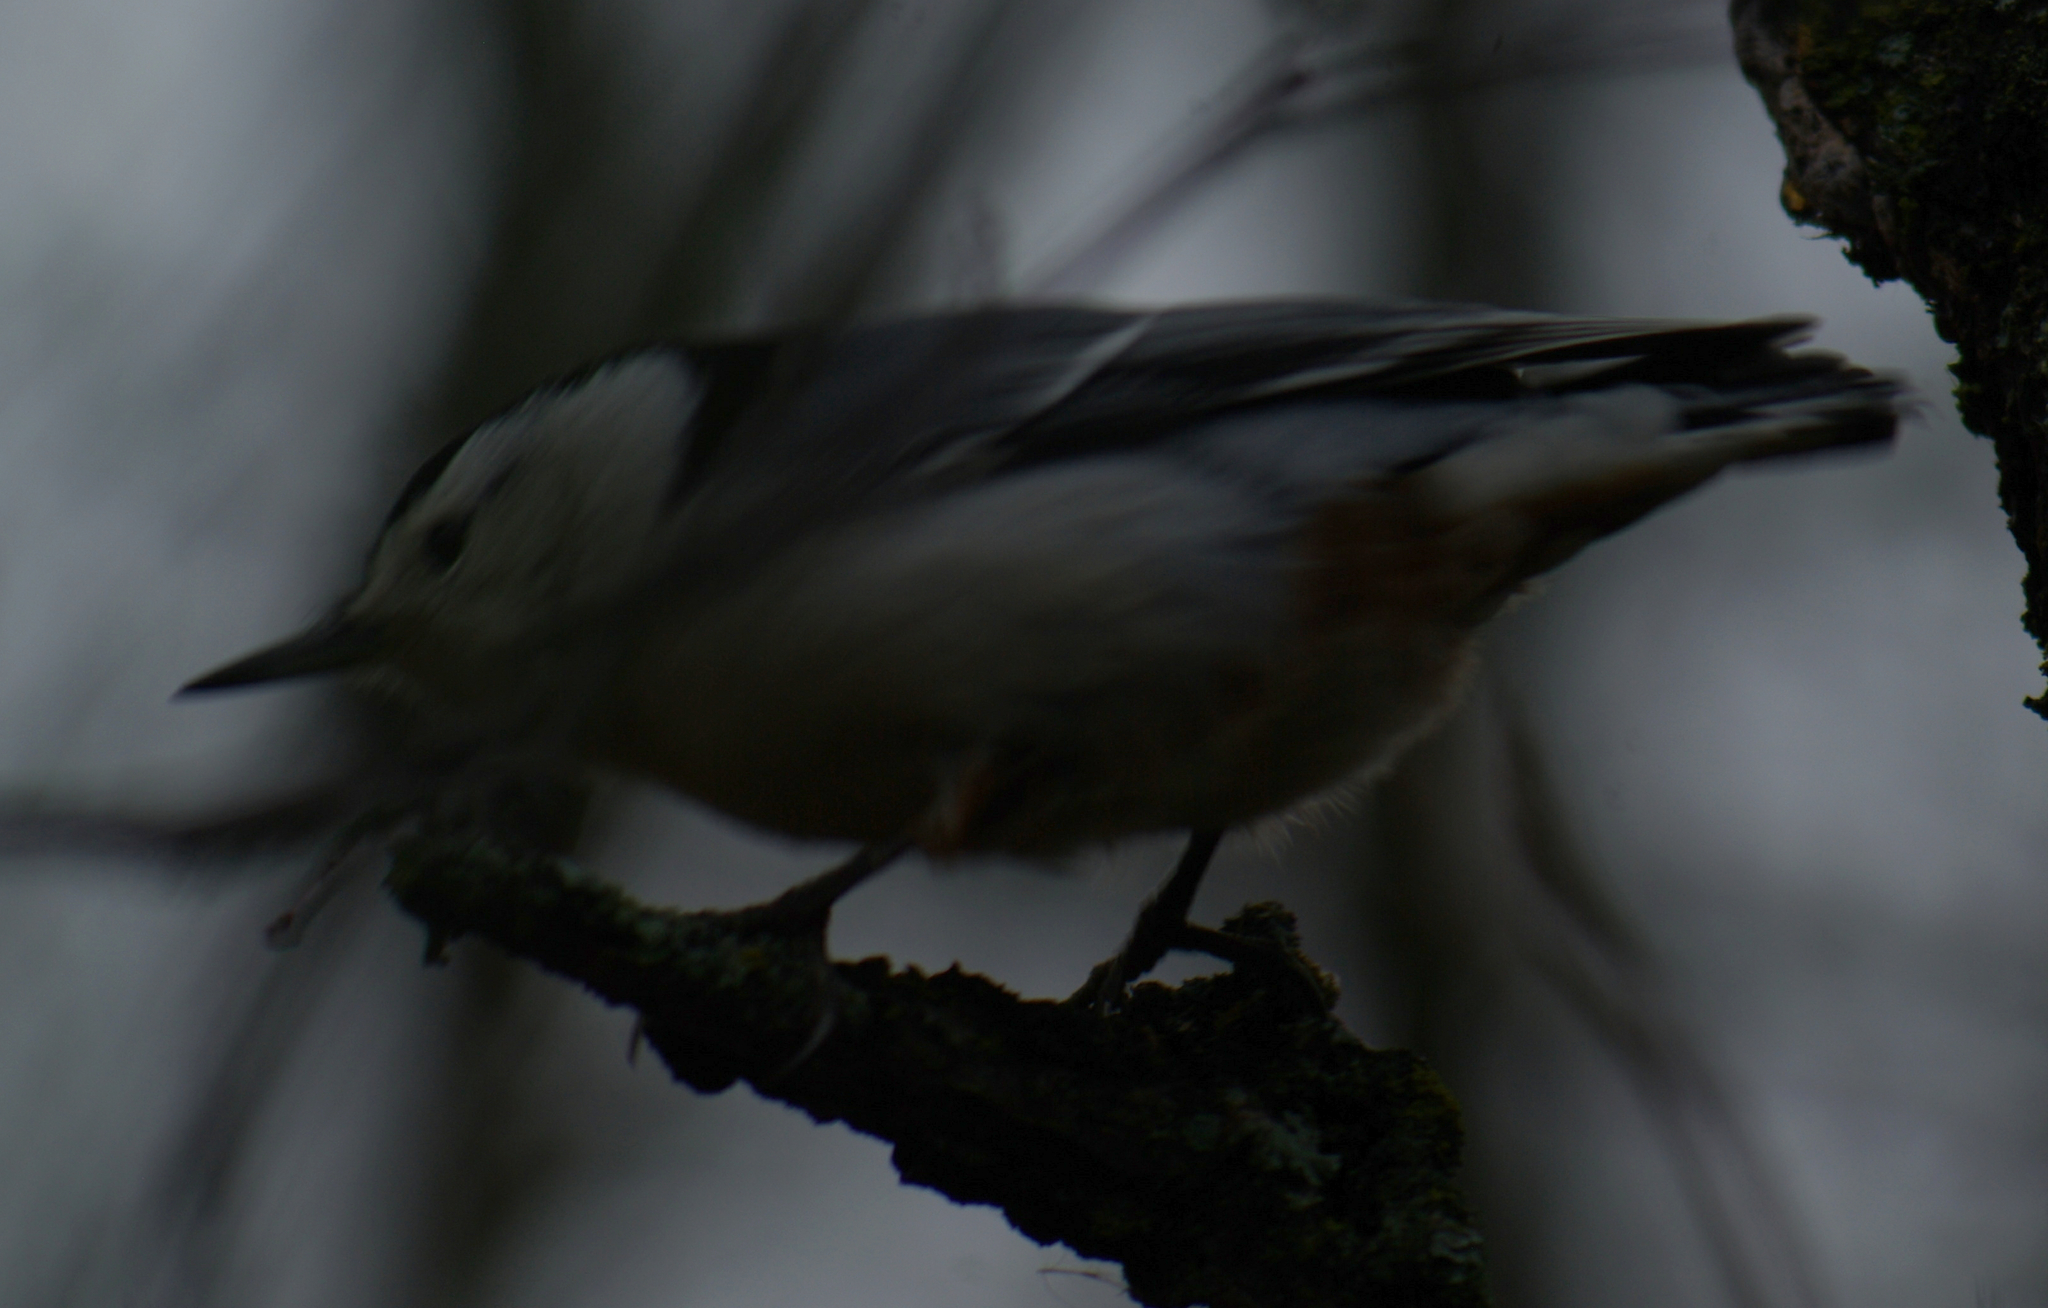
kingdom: Animalia
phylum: Chordata
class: Aves
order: Passeriformes
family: Sittidae
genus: Sitta
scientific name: Sitta carolinensis
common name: White-breasted nuthatch
